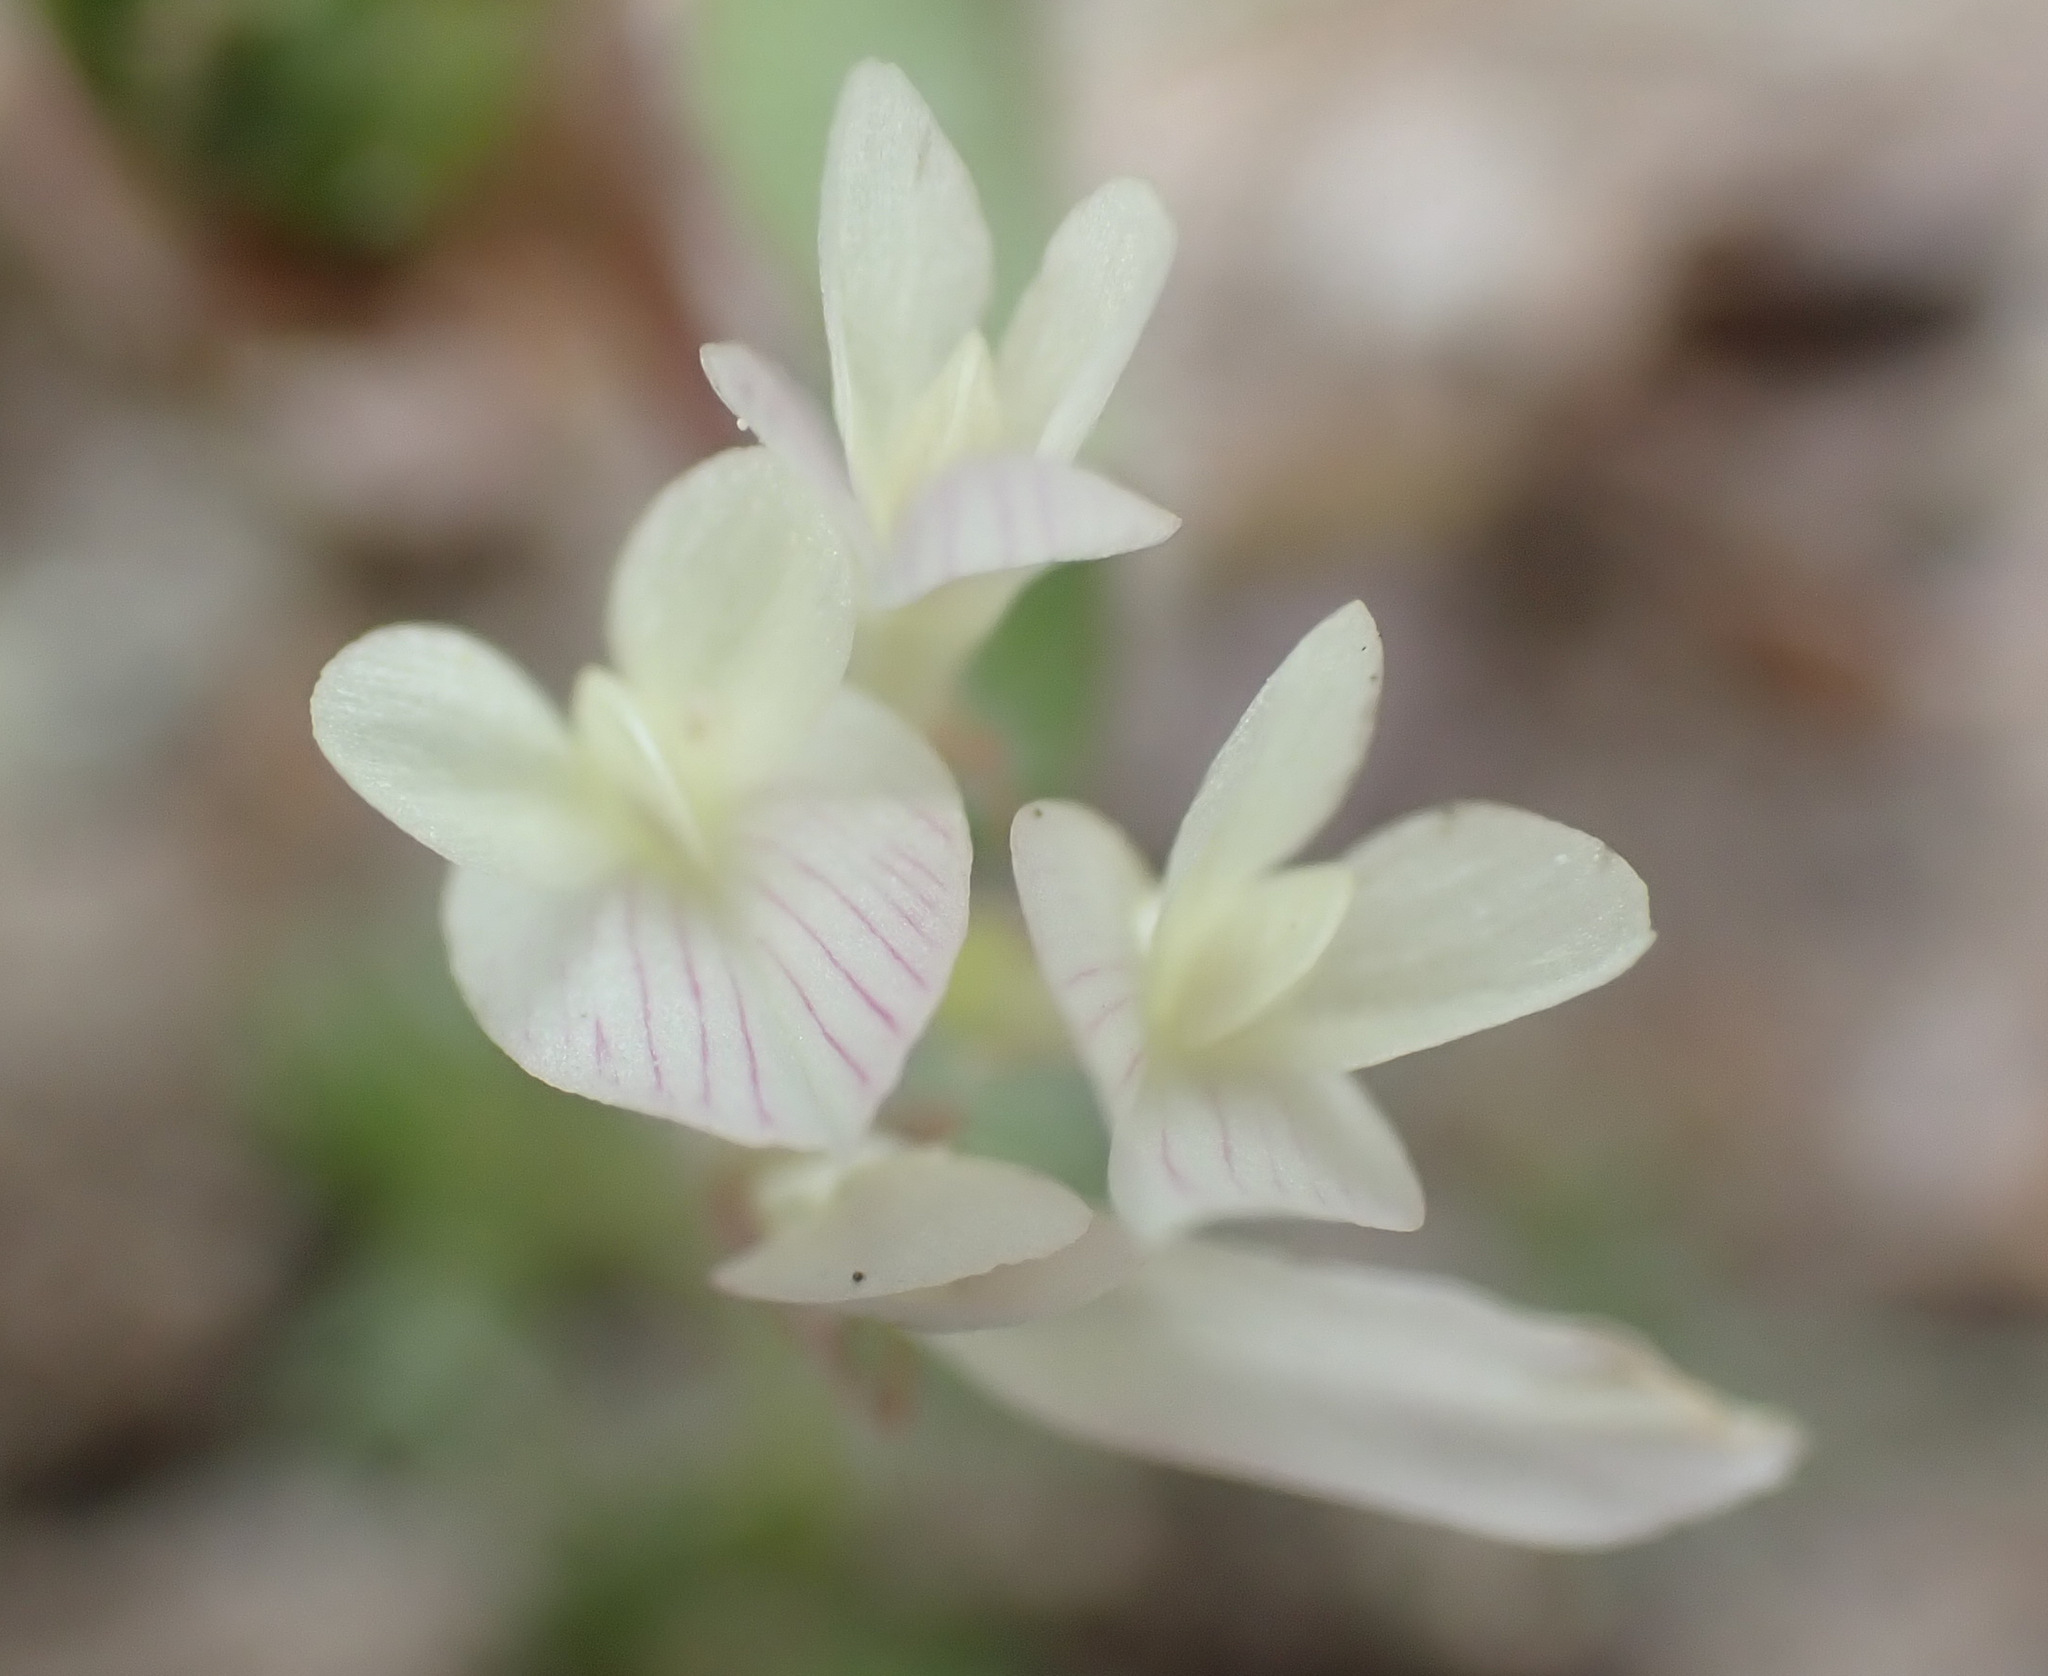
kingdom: Plantae
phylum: Tracheophyta
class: Magnoliopsida
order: Fabales
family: Fabaceae
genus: Trifolium
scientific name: Trifolium subterraneum
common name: Subterranean clover
